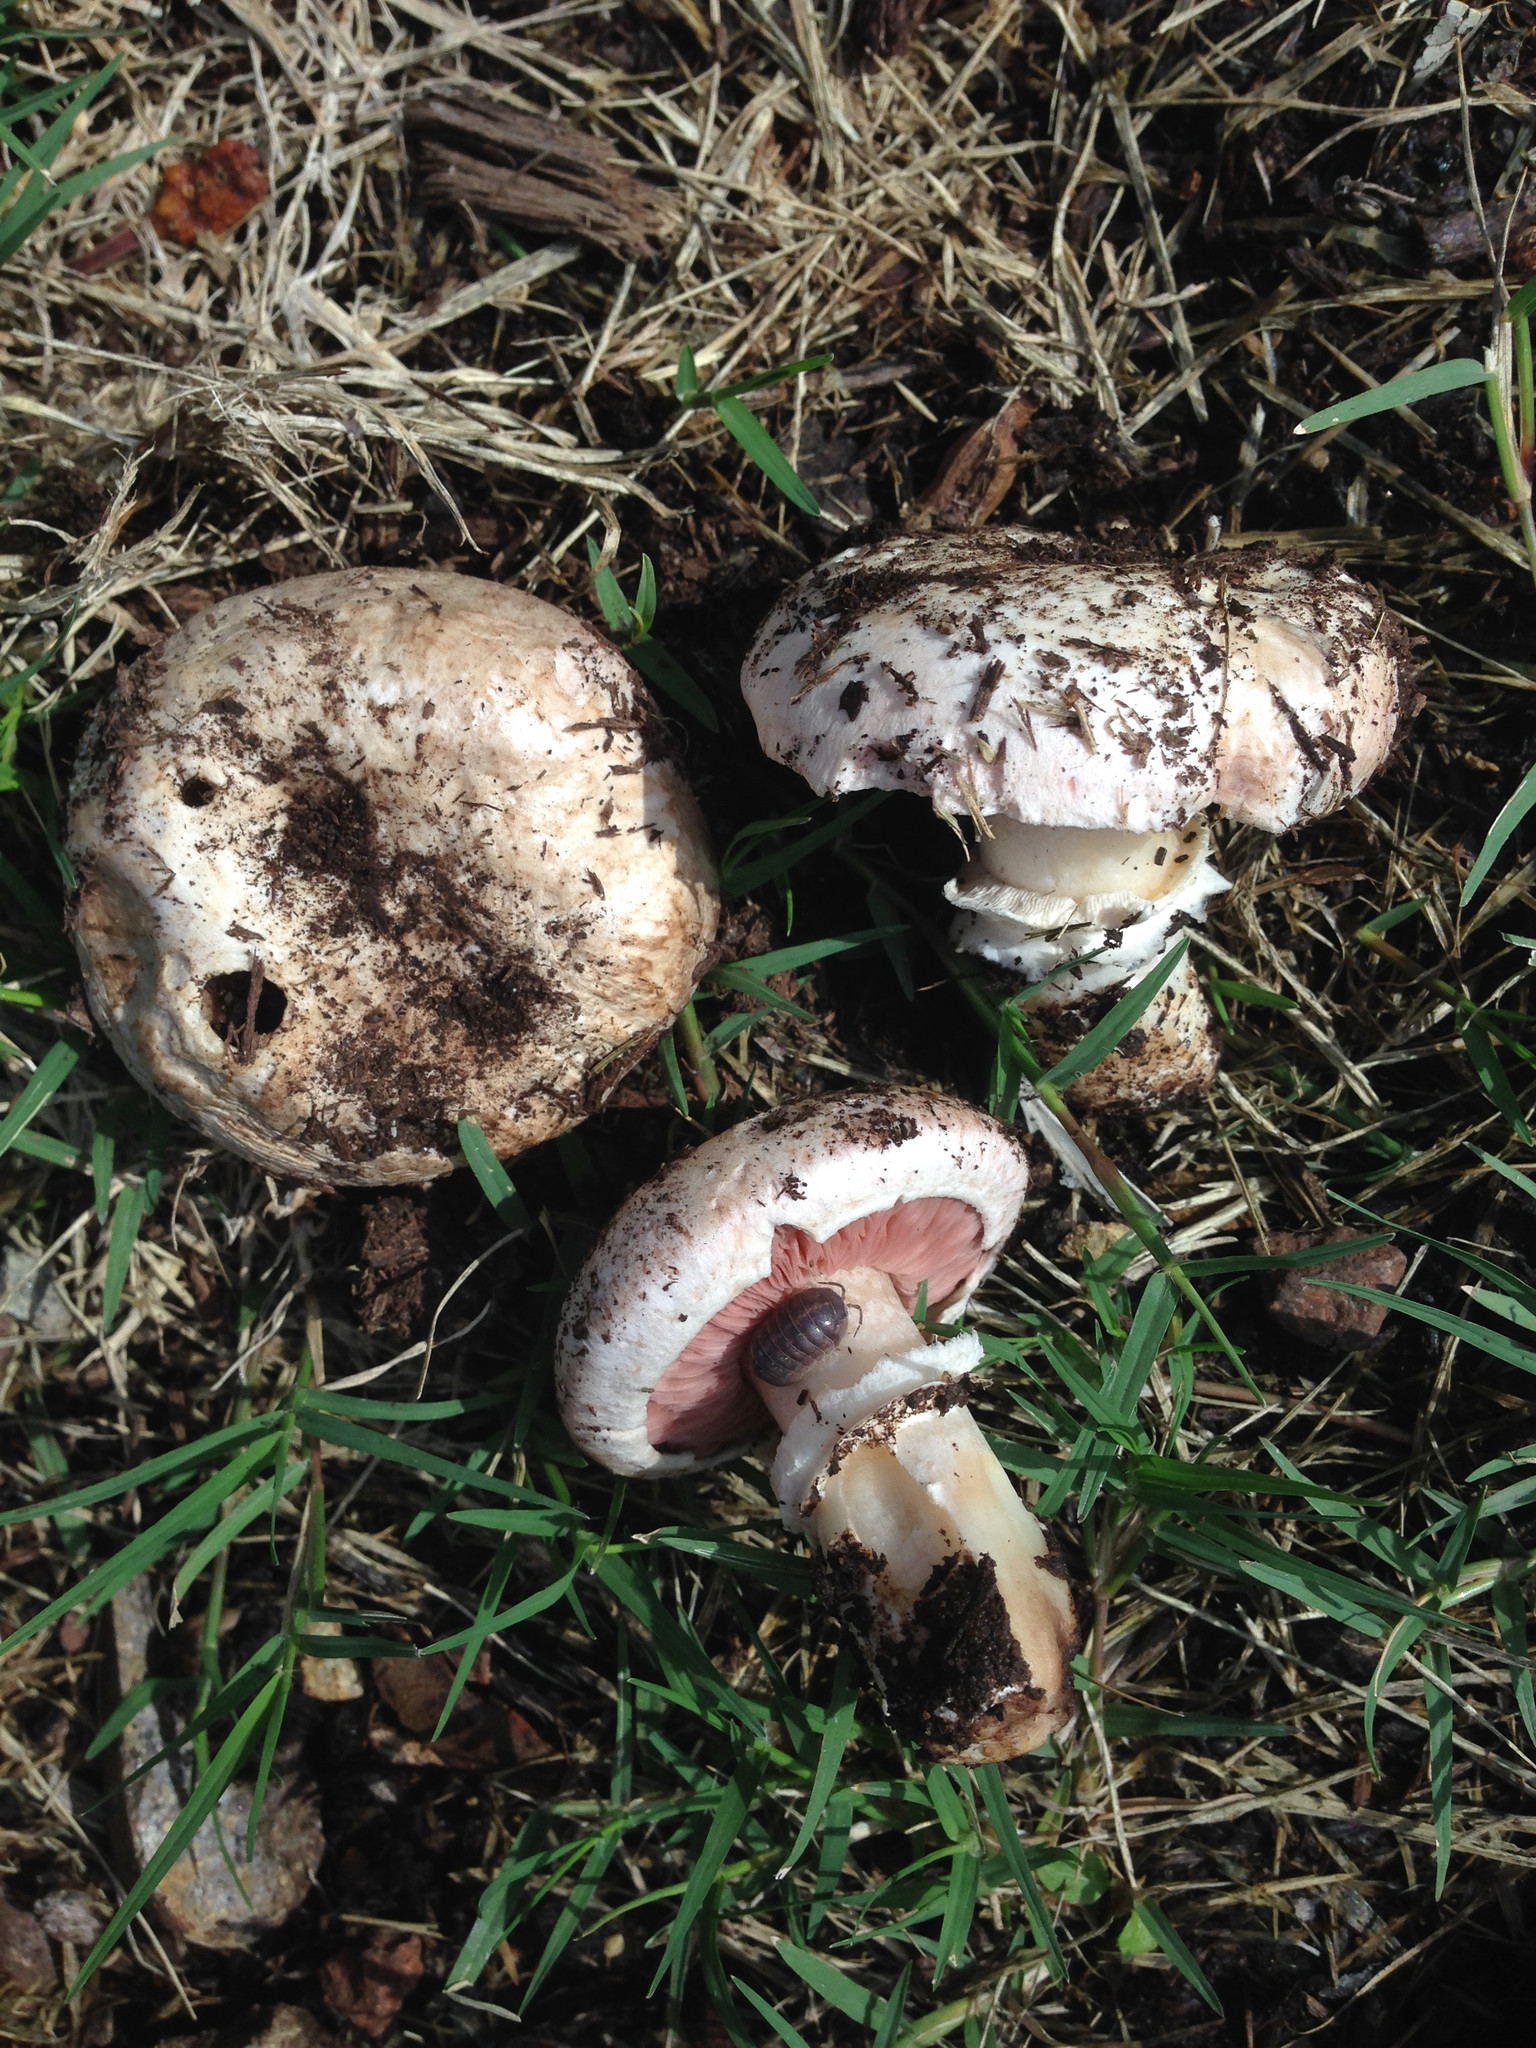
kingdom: Fungi
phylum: Basidiomycota
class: Agaricomycetes
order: Agaricales
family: Agaricaceae
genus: Agaricus
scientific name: Agaricus bitorquis
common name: Pavement mushroom
